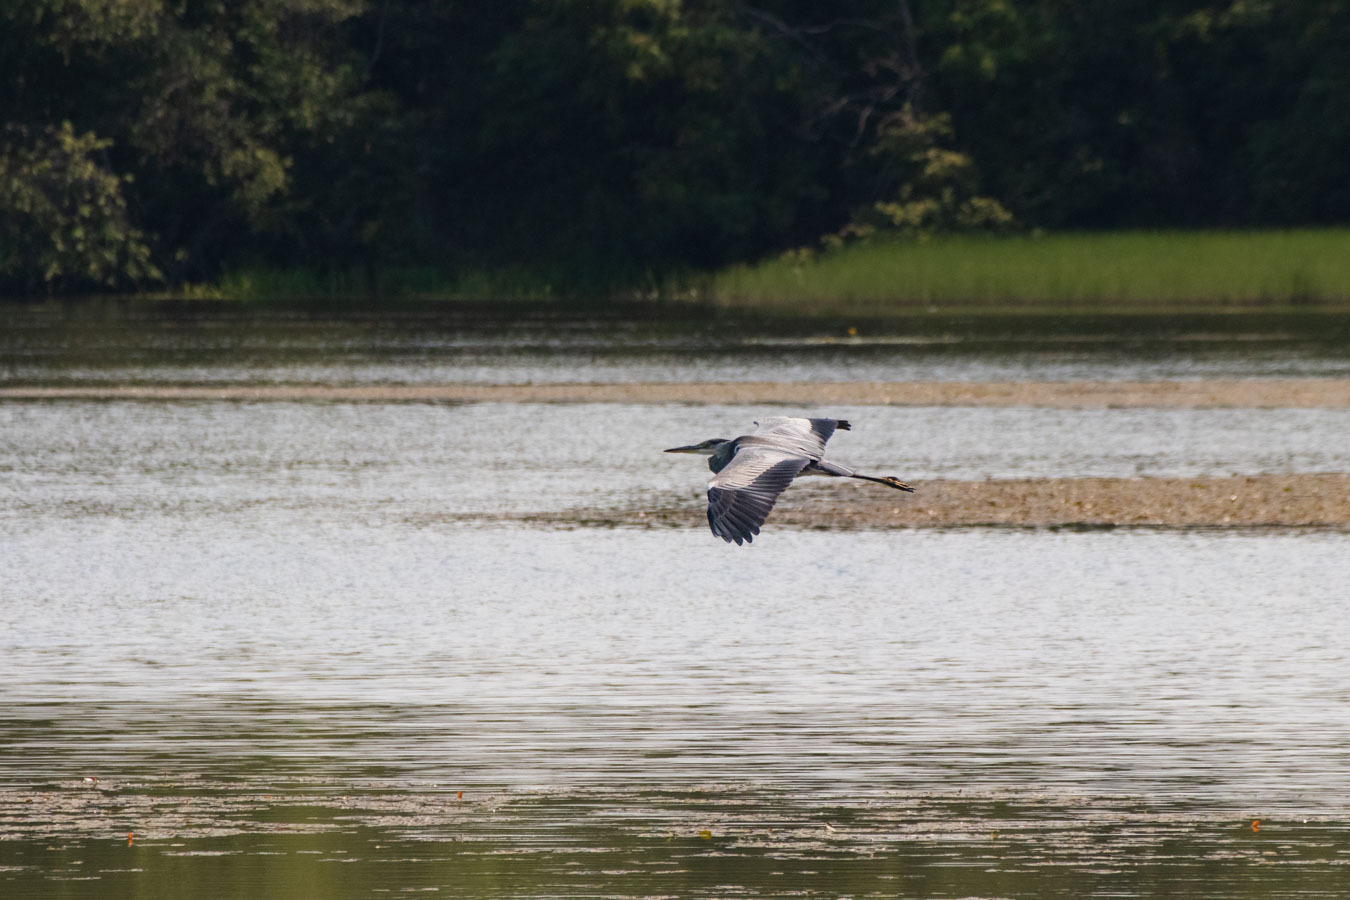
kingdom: Animalia
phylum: Chordata
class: Aves
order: Pelecaniformes
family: Ardeidae
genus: Ardea
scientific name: Ardea cinerea
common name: Grey heron
